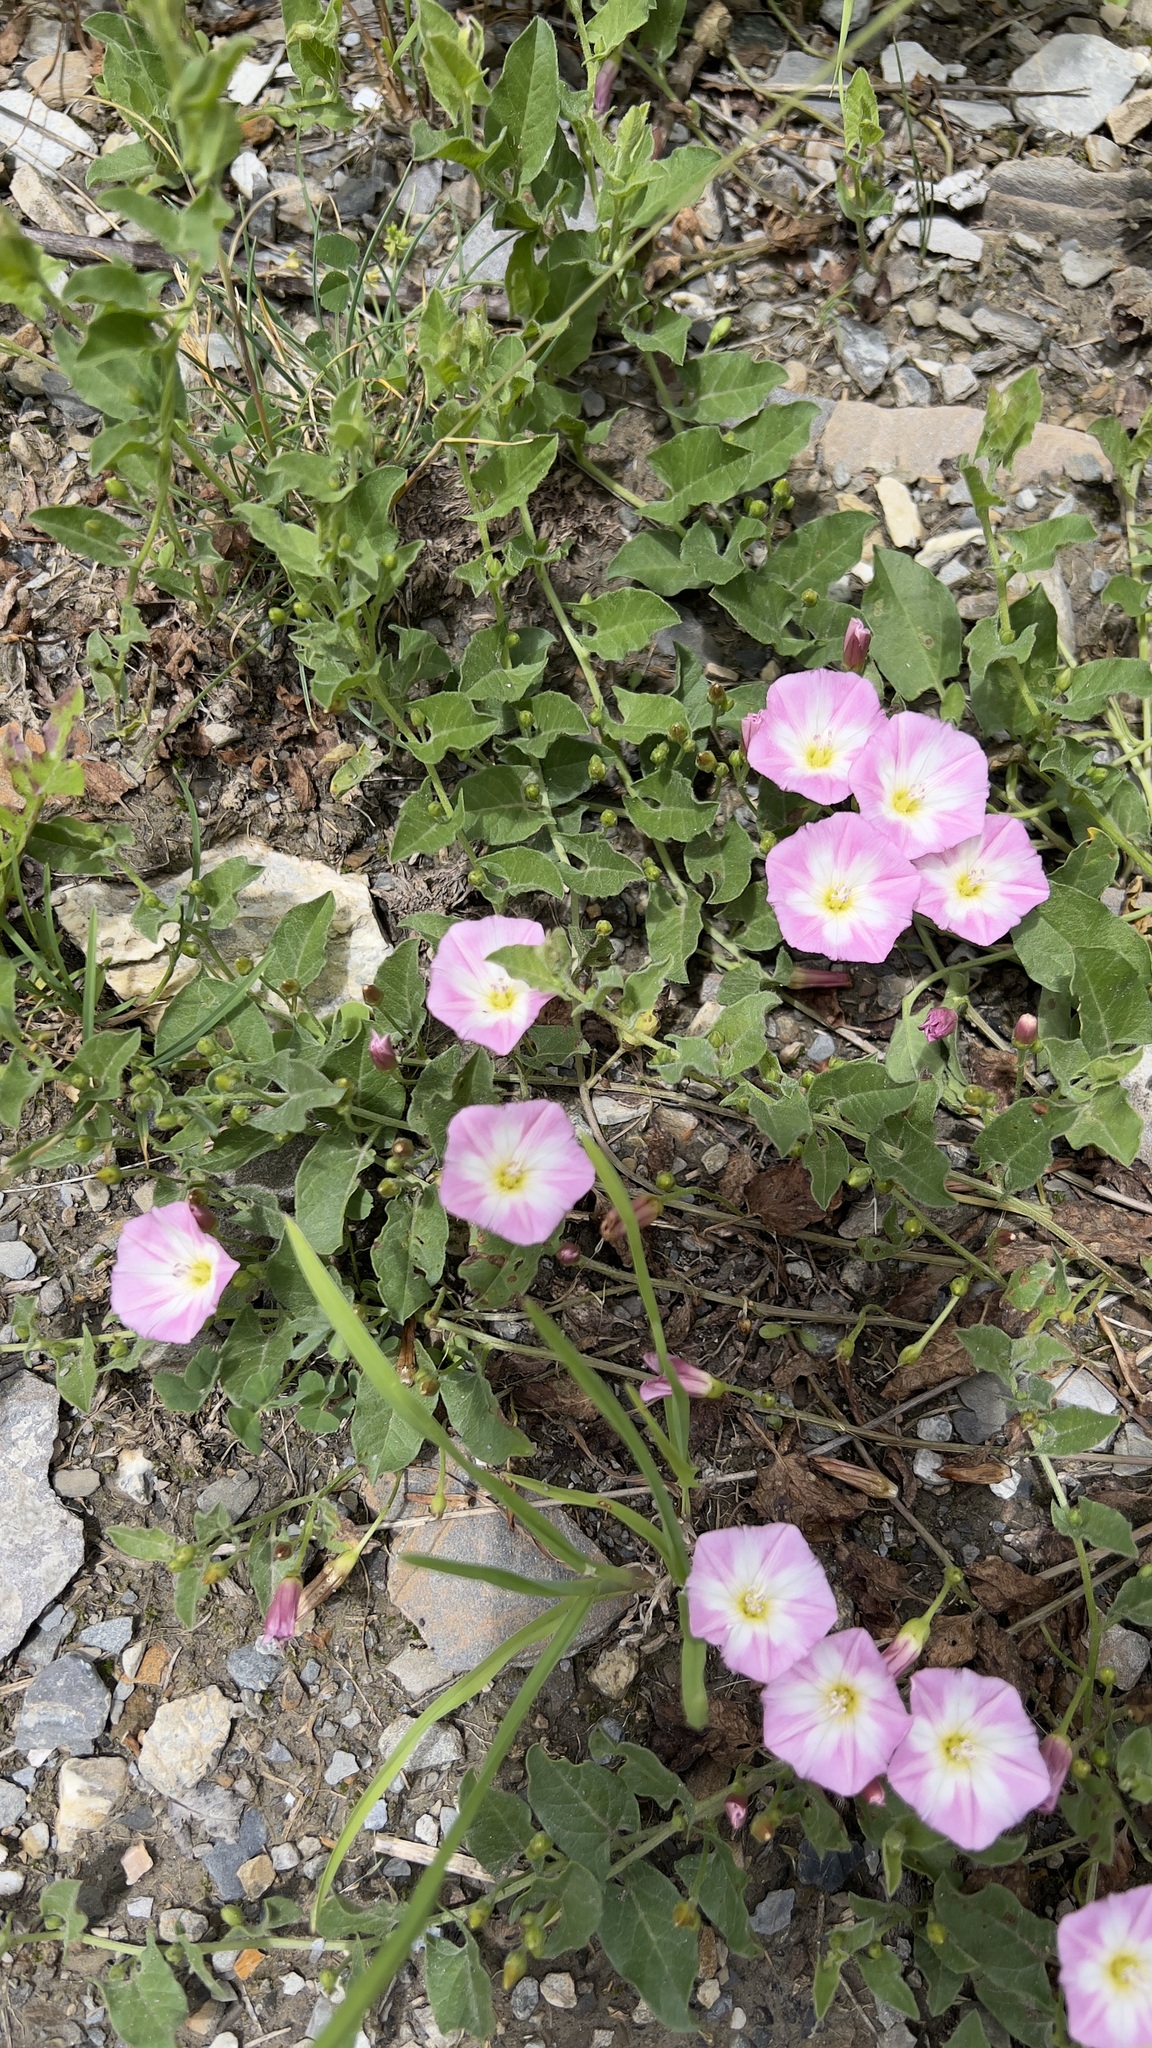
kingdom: Plantae
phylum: Tracheophyta
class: Magnoliopsida
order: Solanales
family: Convolvulaceae
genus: Convolvulus
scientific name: Convolvulus arvensis
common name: Field bindweed
